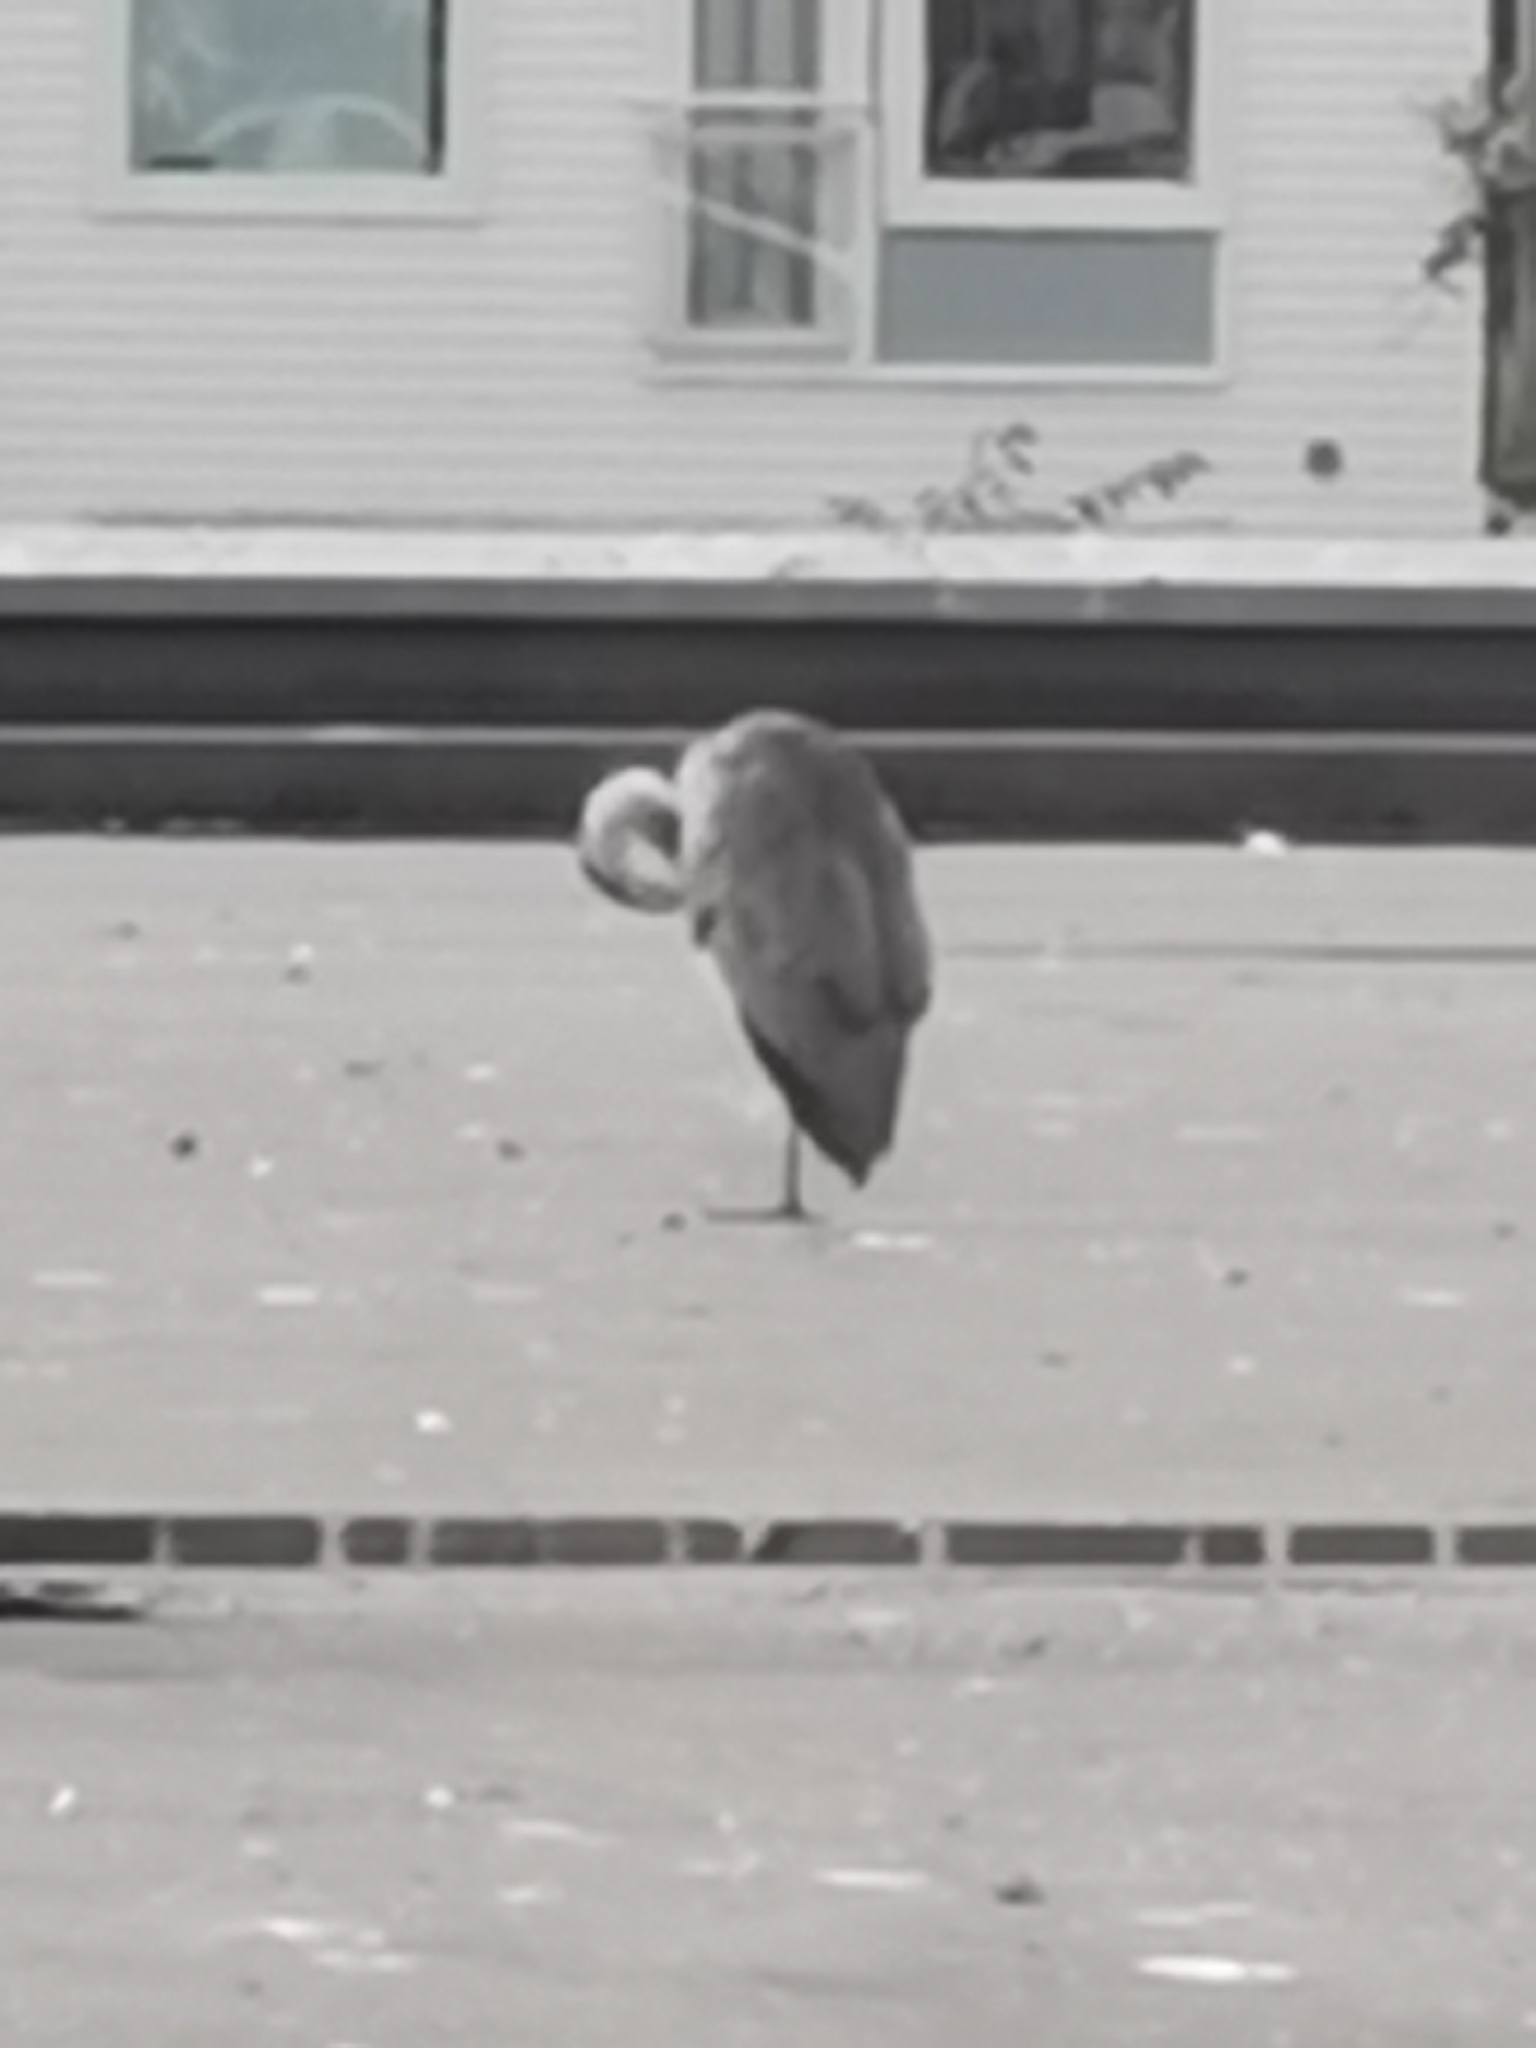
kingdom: Animalia
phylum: Chordata
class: Aves
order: Pelecaniformes
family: Ardeidae
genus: Ardea
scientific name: Ardea cinerea
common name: Grey heron
